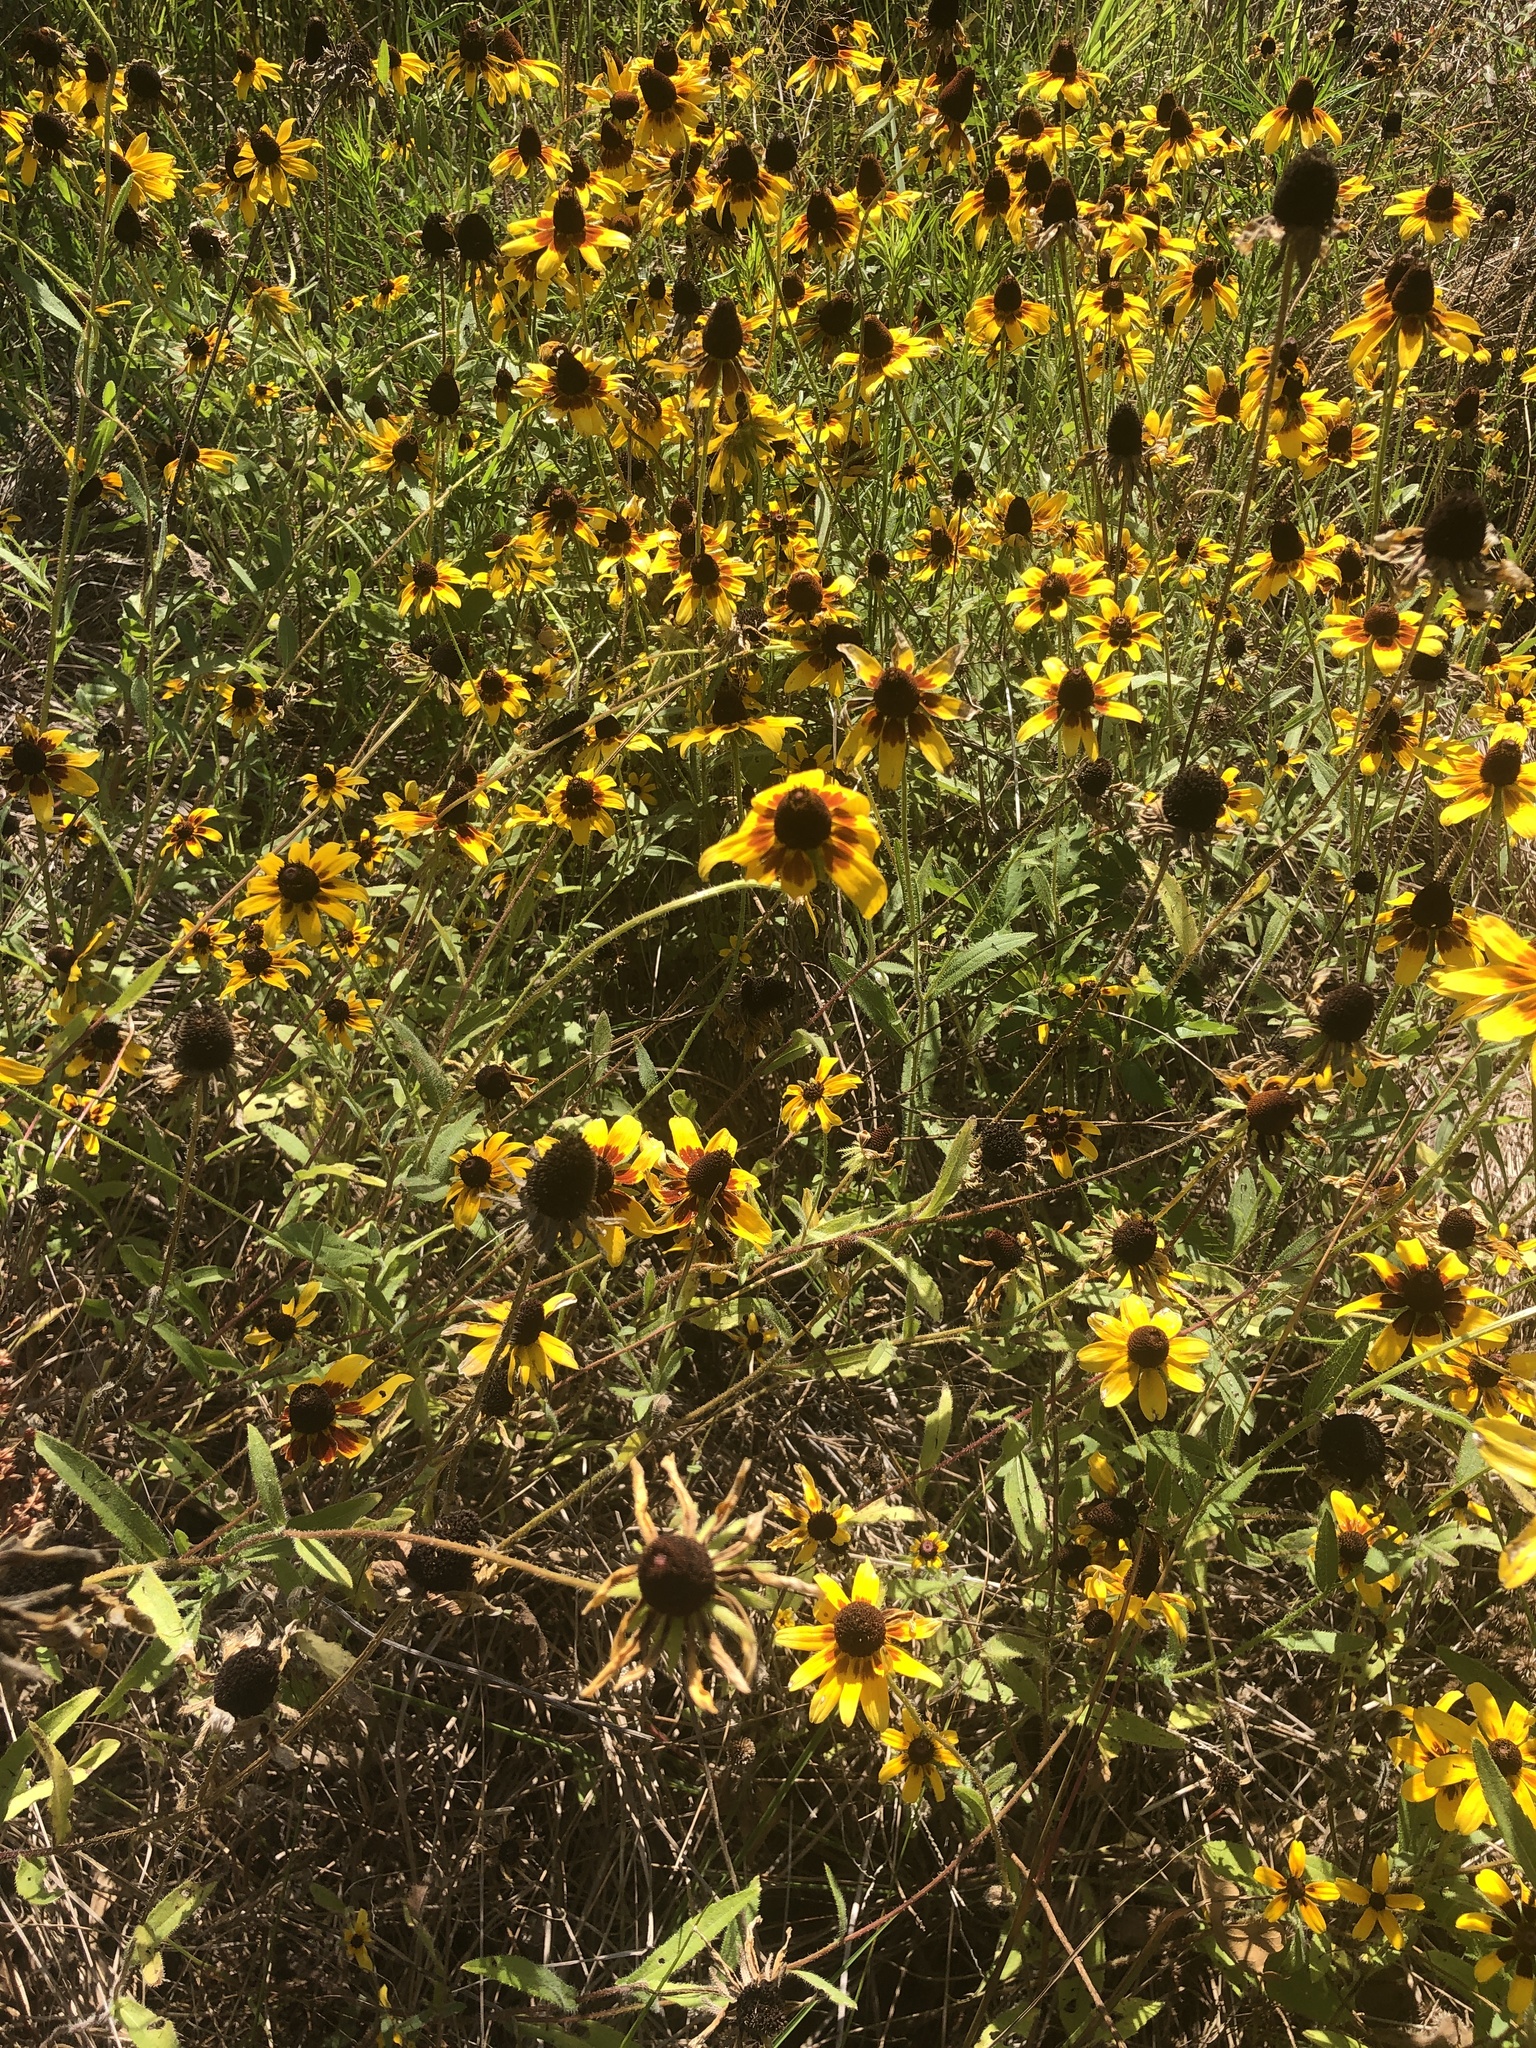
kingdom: Plantae
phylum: Tracheophyta
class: Magnoliopsida
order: Asterales
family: Asteraceae
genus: Rudbeckia
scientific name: Rudbeckia hirta
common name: Black-eyed-susan
